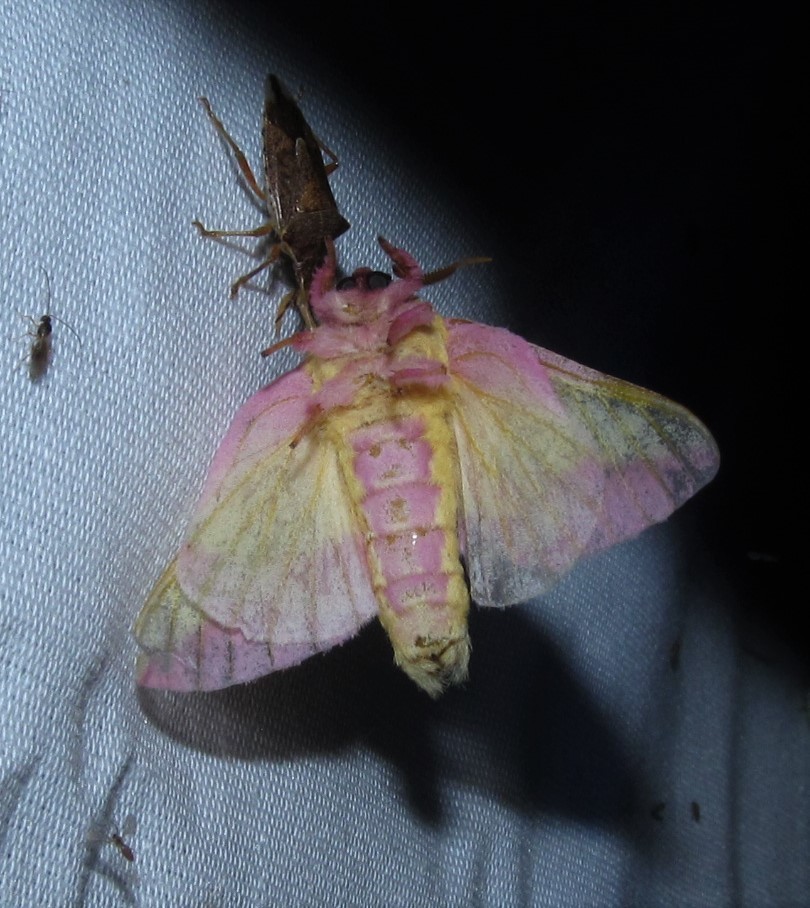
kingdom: Animalia
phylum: Arthropoda
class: Insecta
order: Lepidoptera
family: Saturniidae
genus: Dryocampa
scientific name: Dryocampa rubicunda
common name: Rosy maple moth
